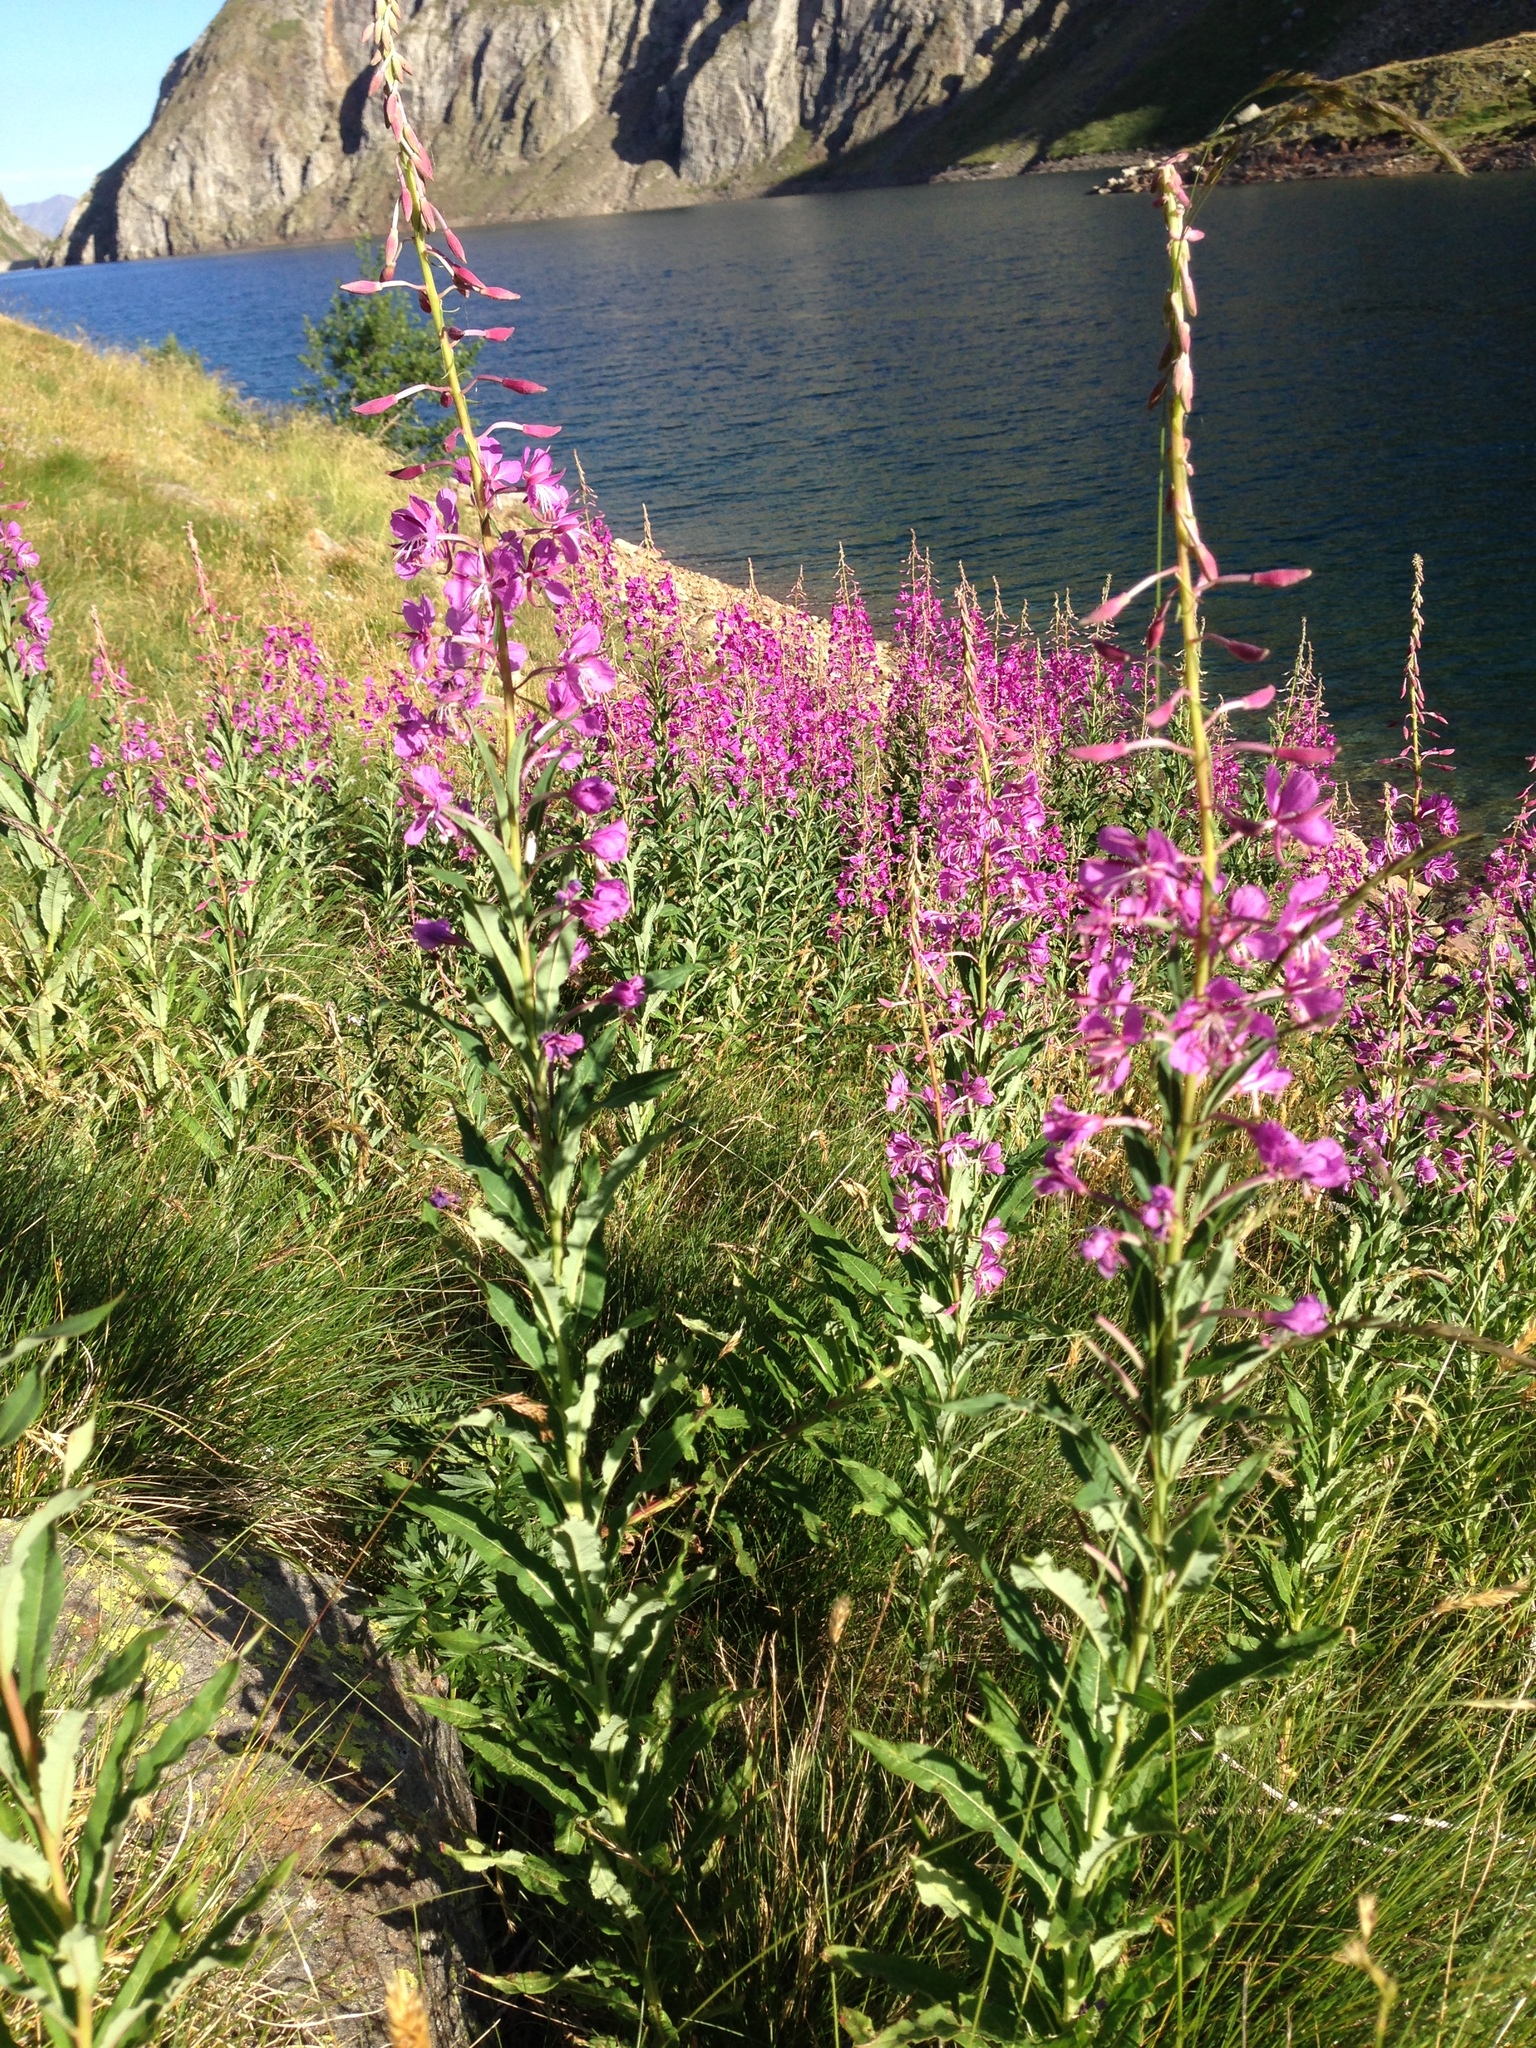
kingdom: Plantae
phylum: Tracheophyta
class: Magnoliopsida
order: Myrtales
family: Onagraceae
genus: Chamaenerion
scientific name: Chamaenerion angustifolium
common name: Fireweed
